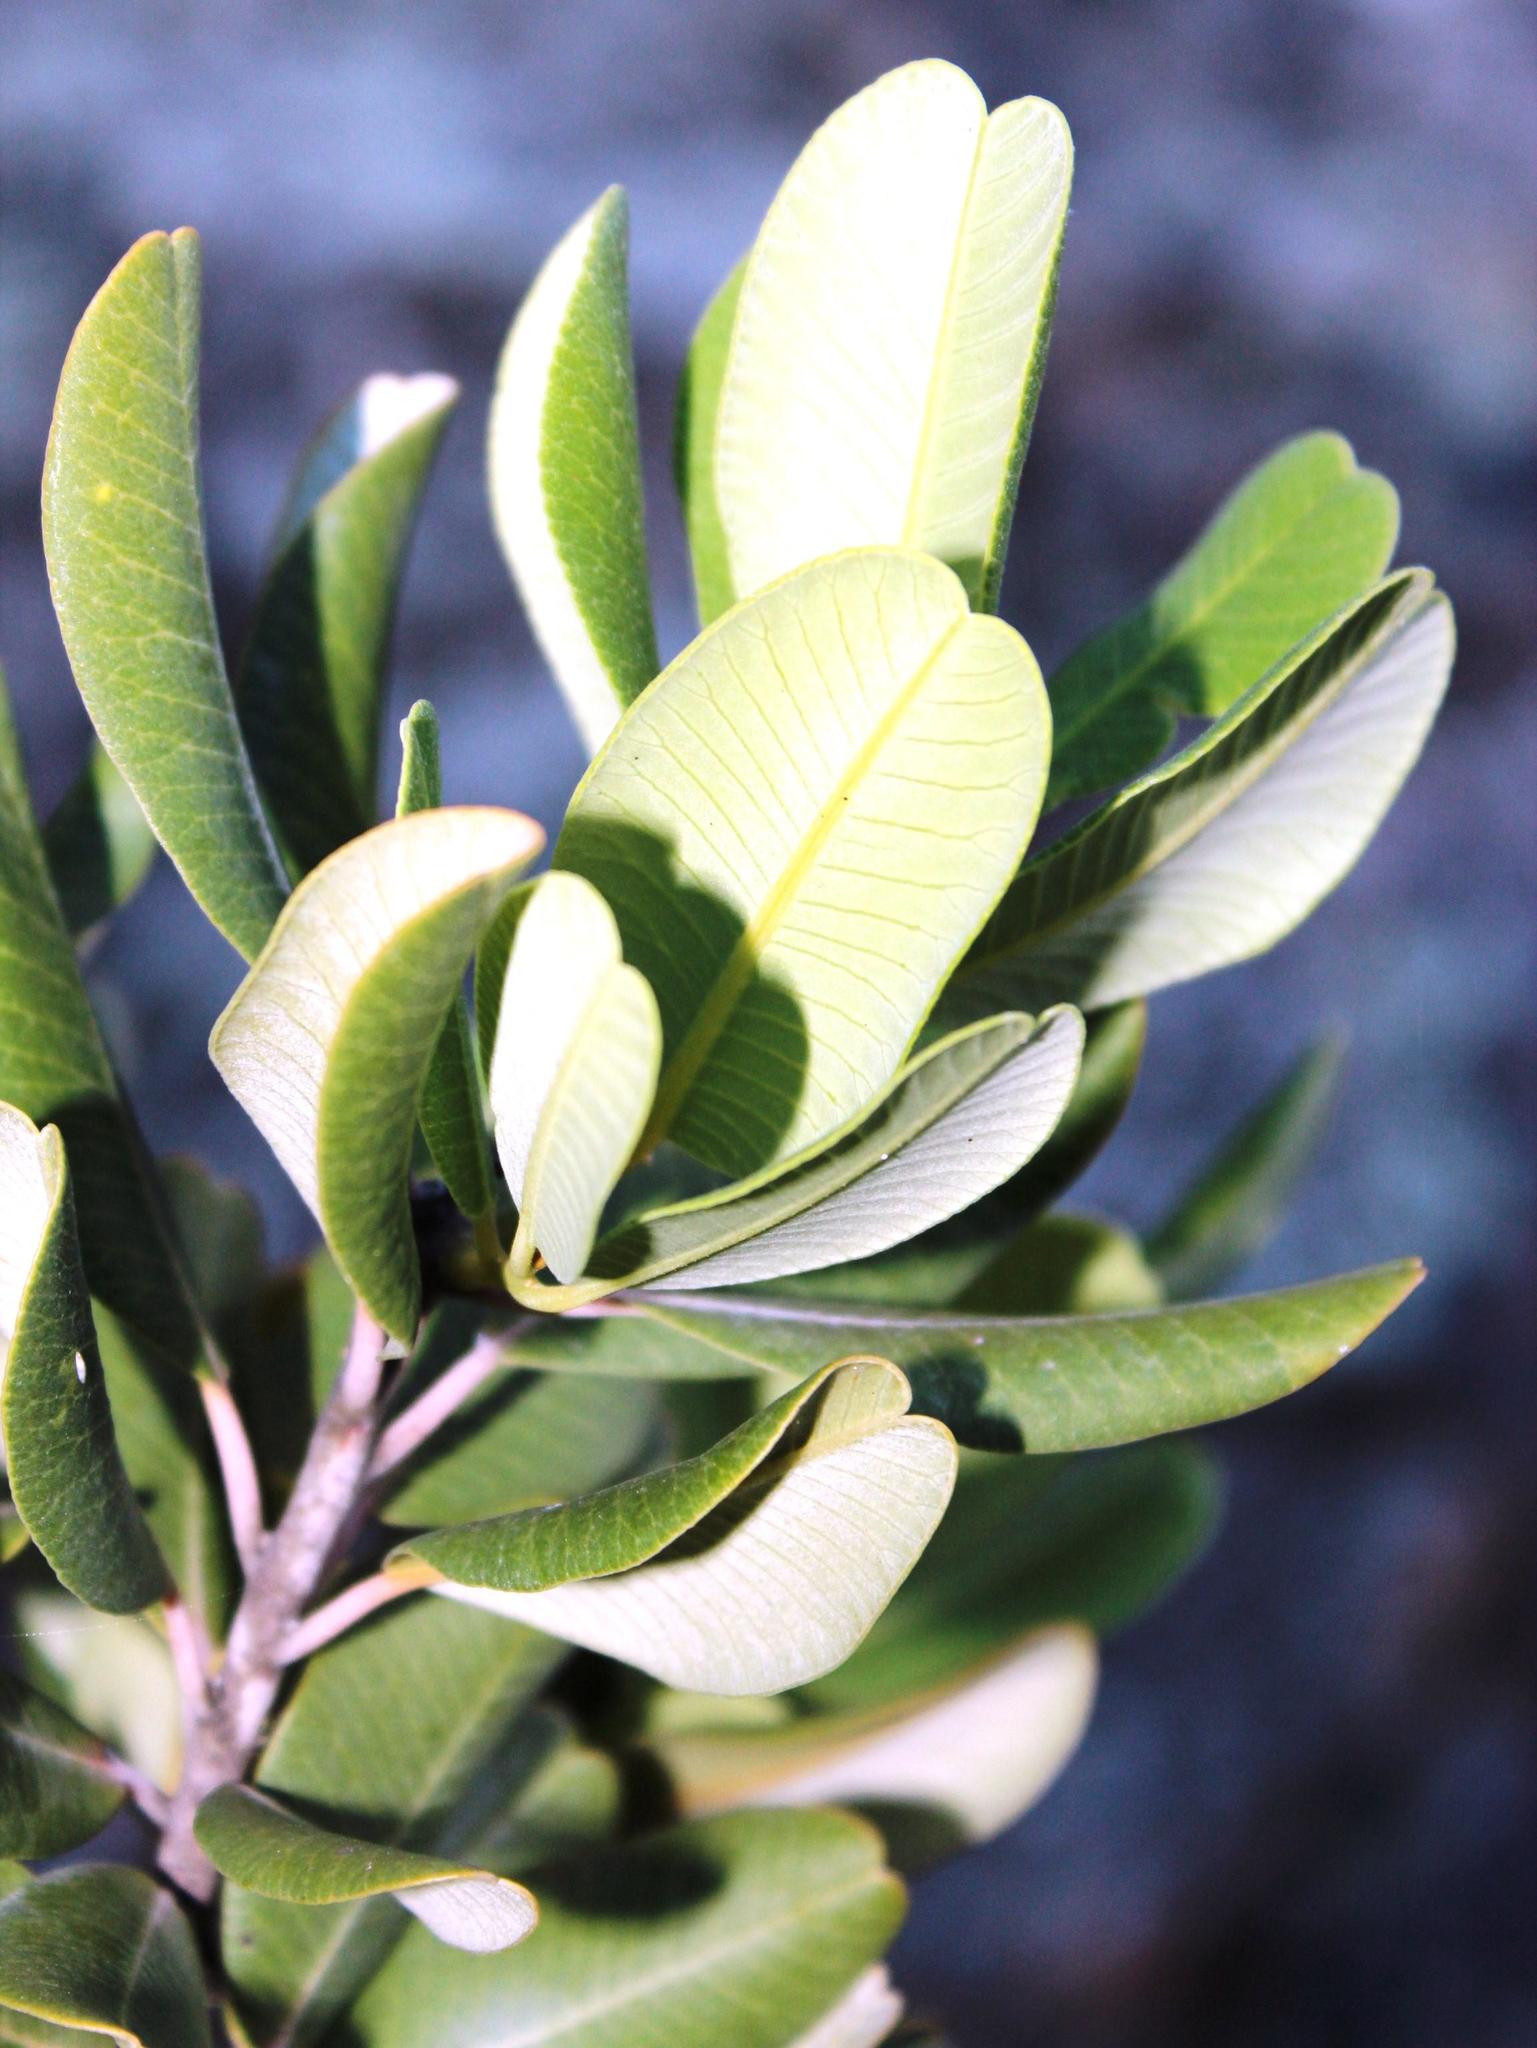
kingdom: Plantae
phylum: Tracheophyta
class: Magnoliopsida
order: Sapindales
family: Anacardiaceae
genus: Heeria
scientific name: Heeria argentea
